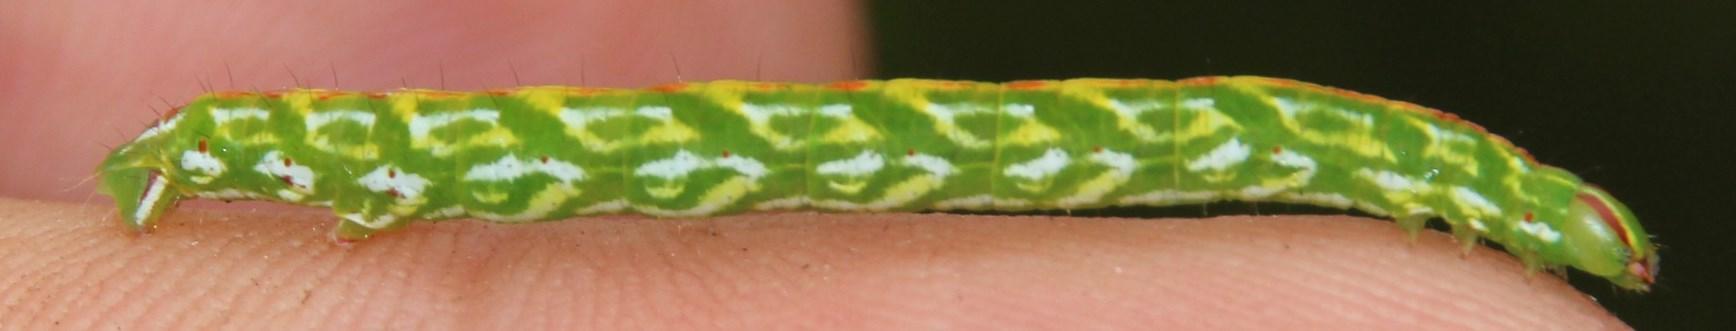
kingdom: Animalia
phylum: Arthropoda
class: Insecta
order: Lepidoptera
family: Geometridae
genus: Acrasia
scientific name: Acrasia crinita
